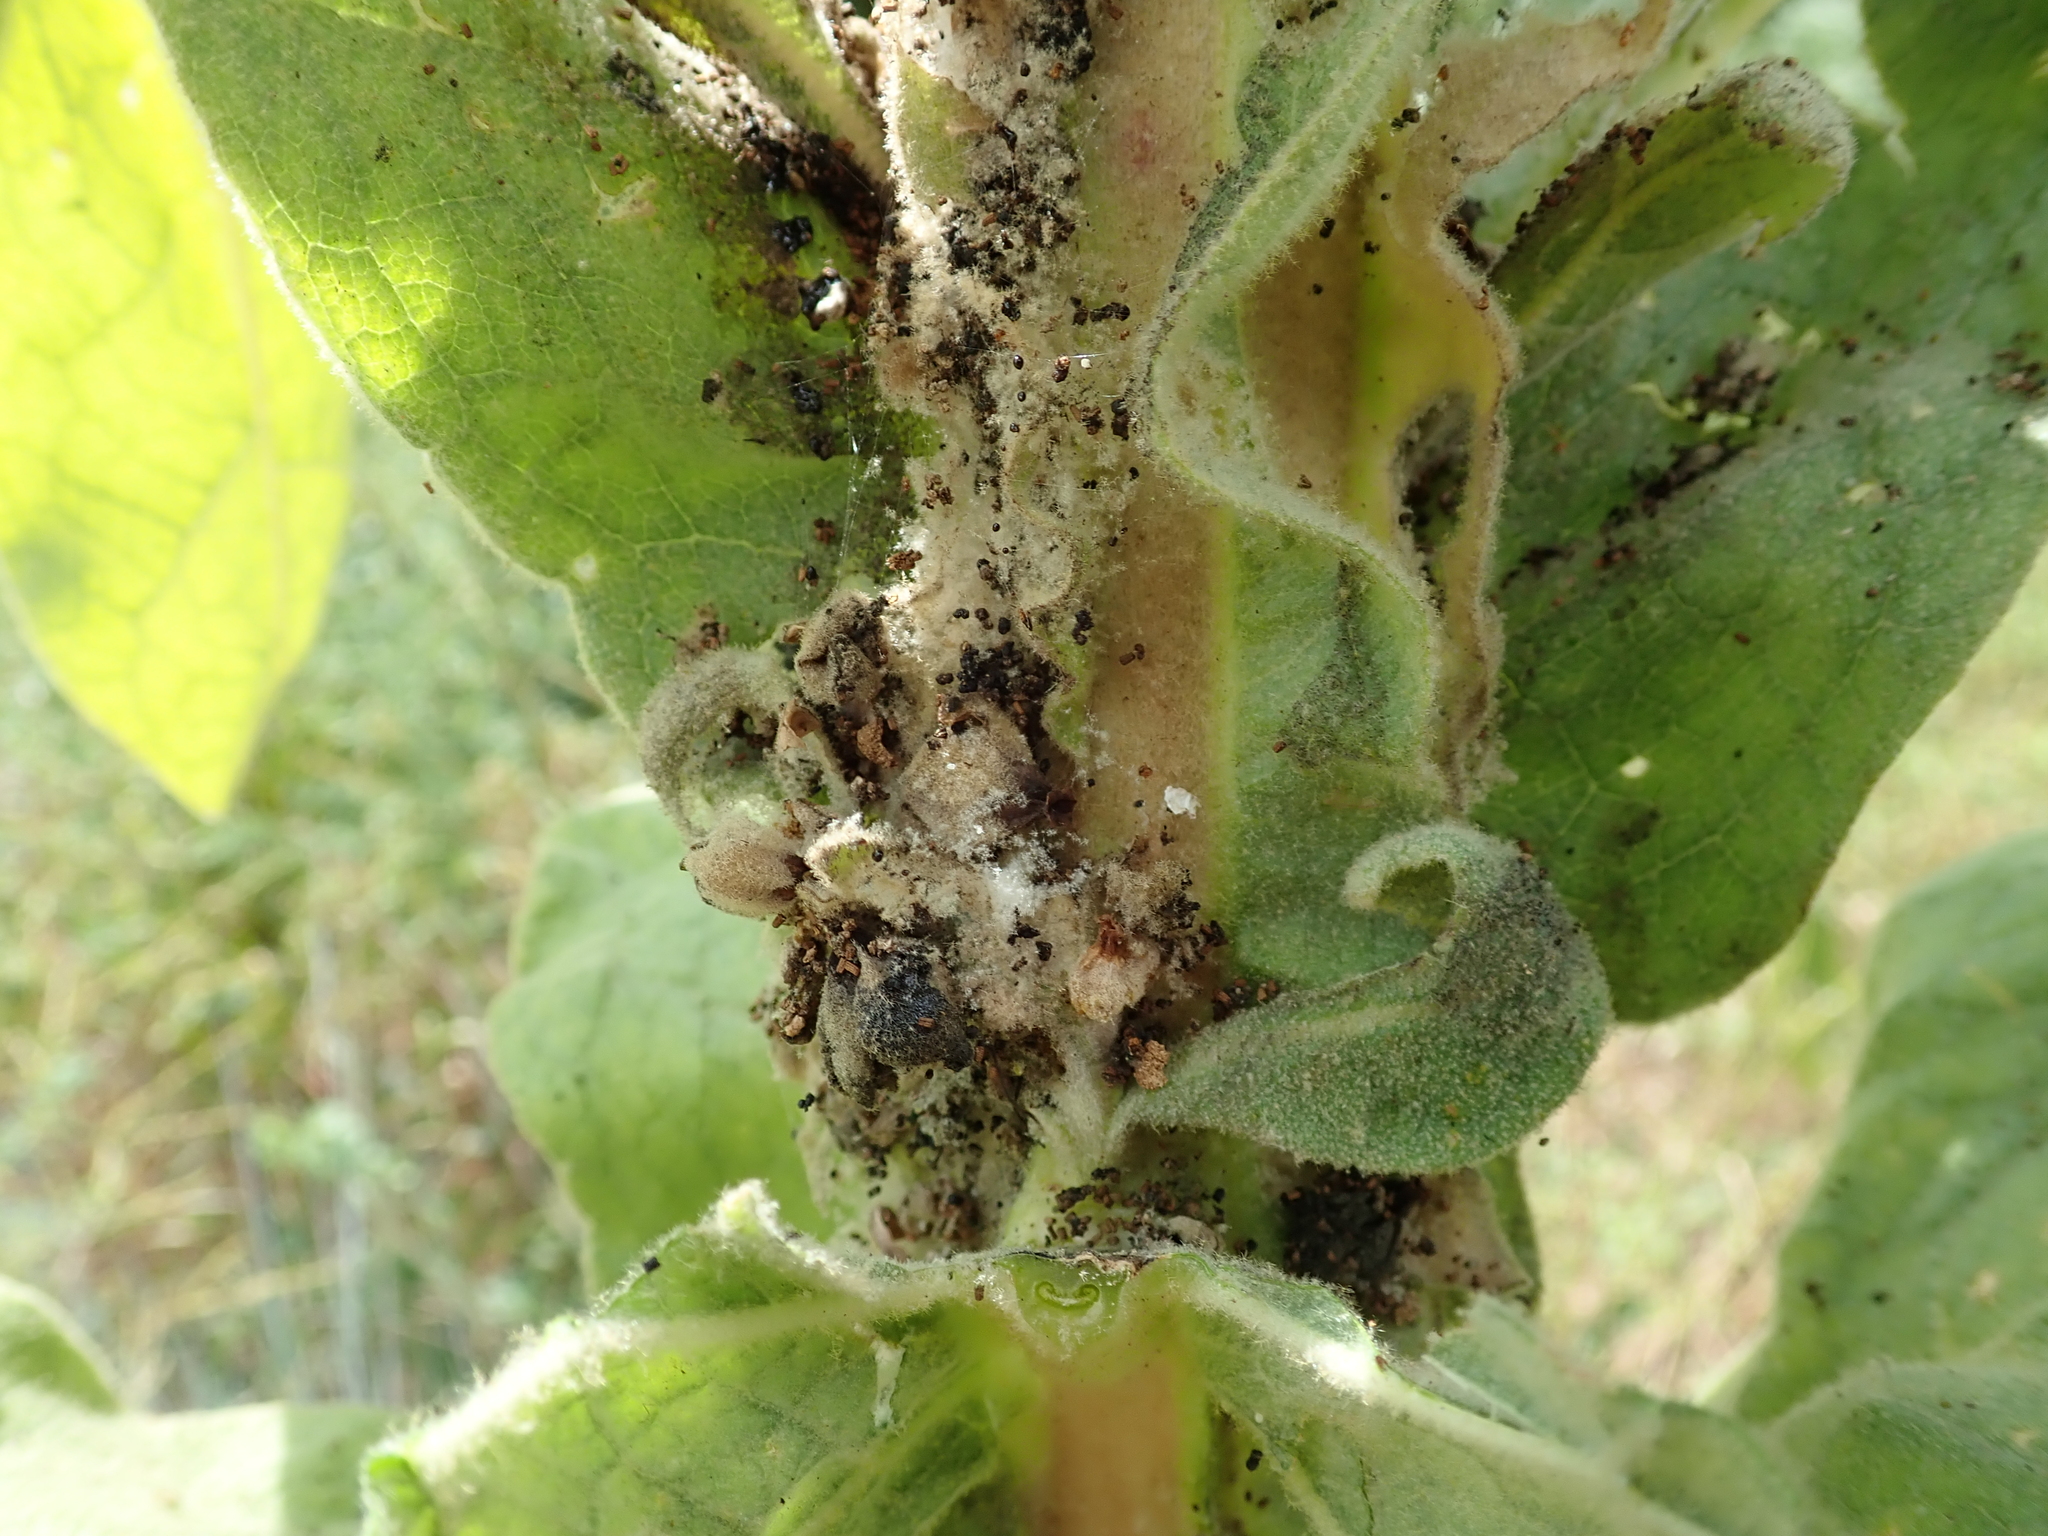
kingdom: Plantae
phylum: Tracheophyta
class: Magnoliopsida
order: Lamiales
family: Scrophulariaceae
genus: Verbascum
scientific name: Verbascum thapsus
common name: Common mullein
